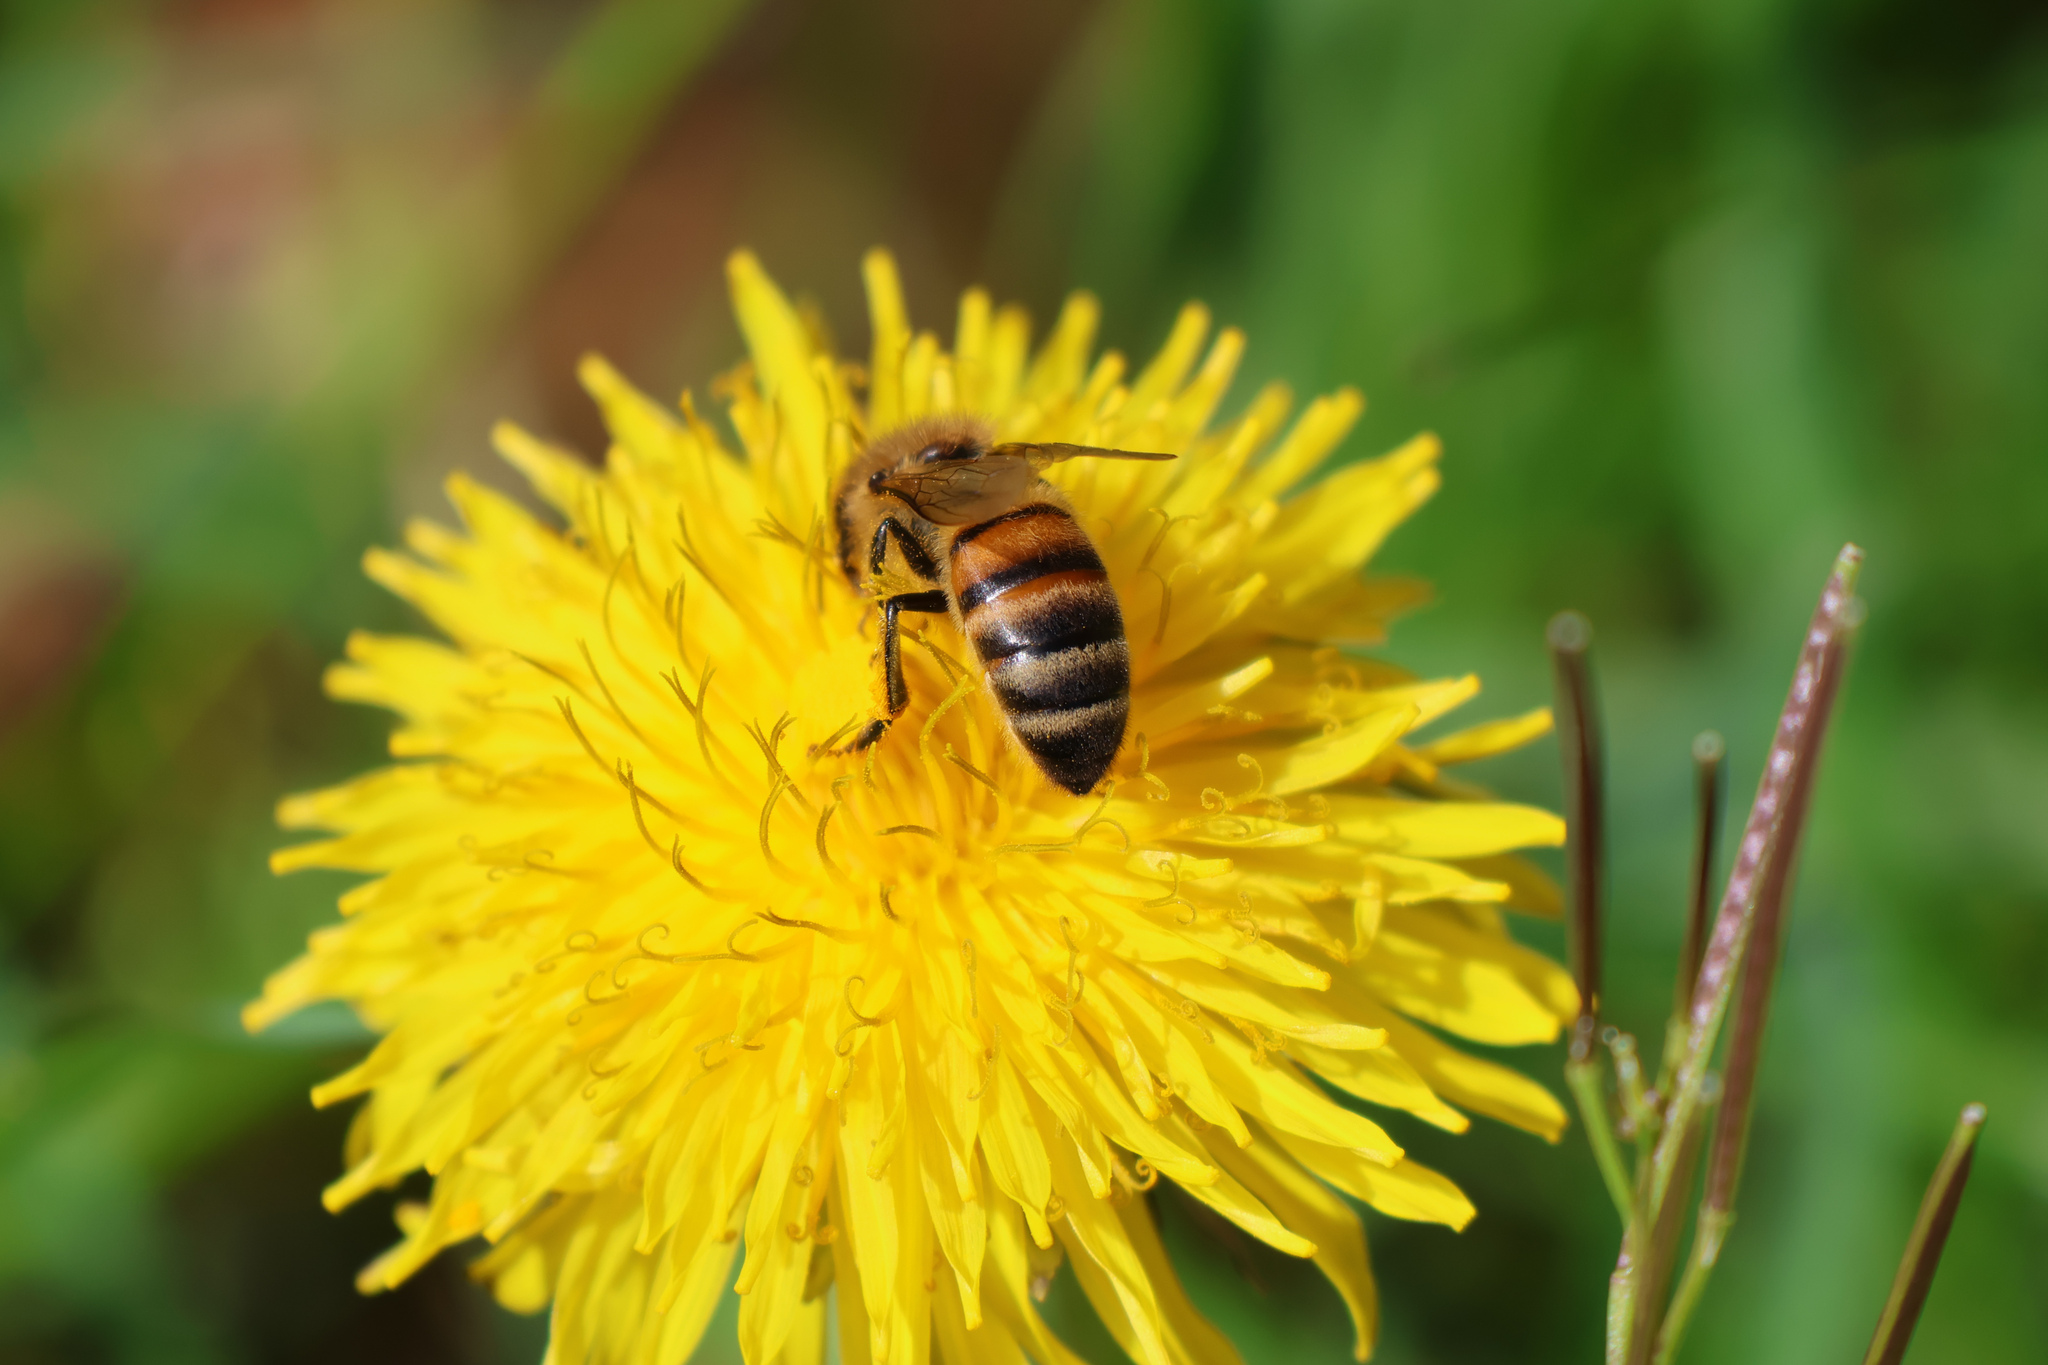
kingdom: Animalia
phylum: Arthropoda
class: Insecta
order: Hymenoptera
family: Apidae
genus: Apis
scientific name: Apis mellifera
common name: Honey bee
